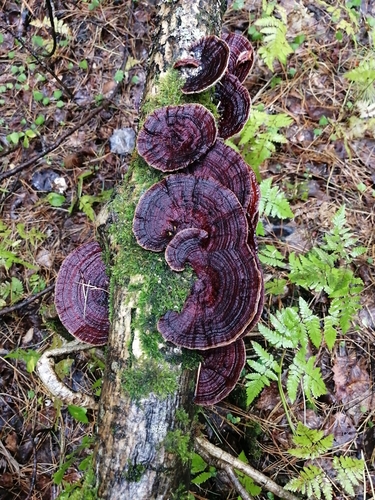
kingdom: Fungi
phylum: Basidiomycota
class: Agaricomycetes
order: Polyporales
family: Polyporaceae
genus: Daedaleopsis
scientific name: Daedaleopsis tricolor
